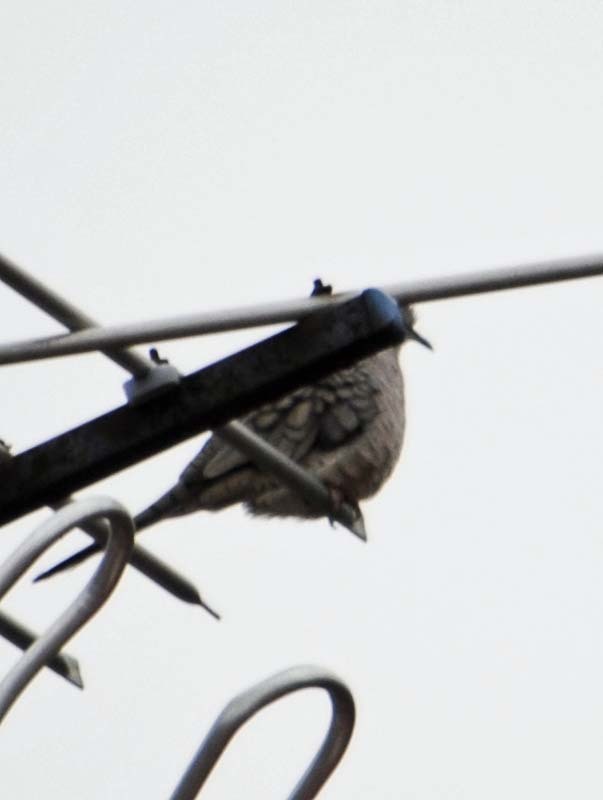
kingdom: Animalia
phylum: Chordata
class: Aves
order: Columbiformes
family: Columbidae
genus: Columbina
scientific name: Columbina inca
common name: Inca dove
